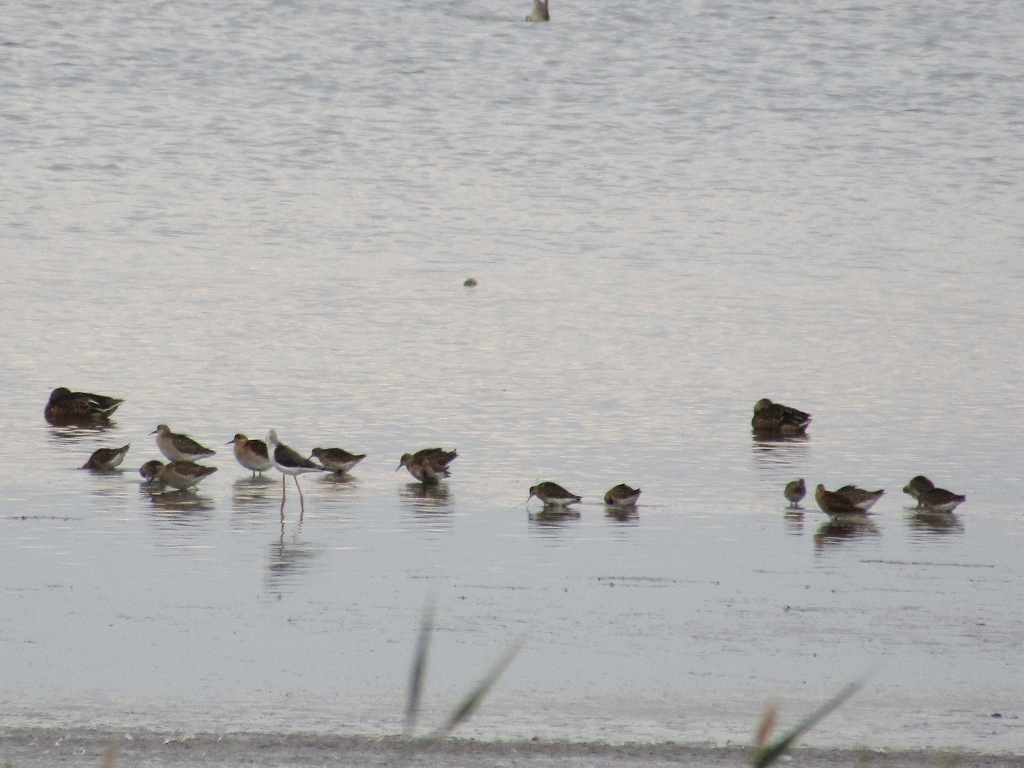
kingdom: Animalia
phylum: Chordata
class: Aves
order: Charadriiformes
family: Scolopacidae
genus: Calidris
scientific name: Calidris pugnax
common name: Ruff
